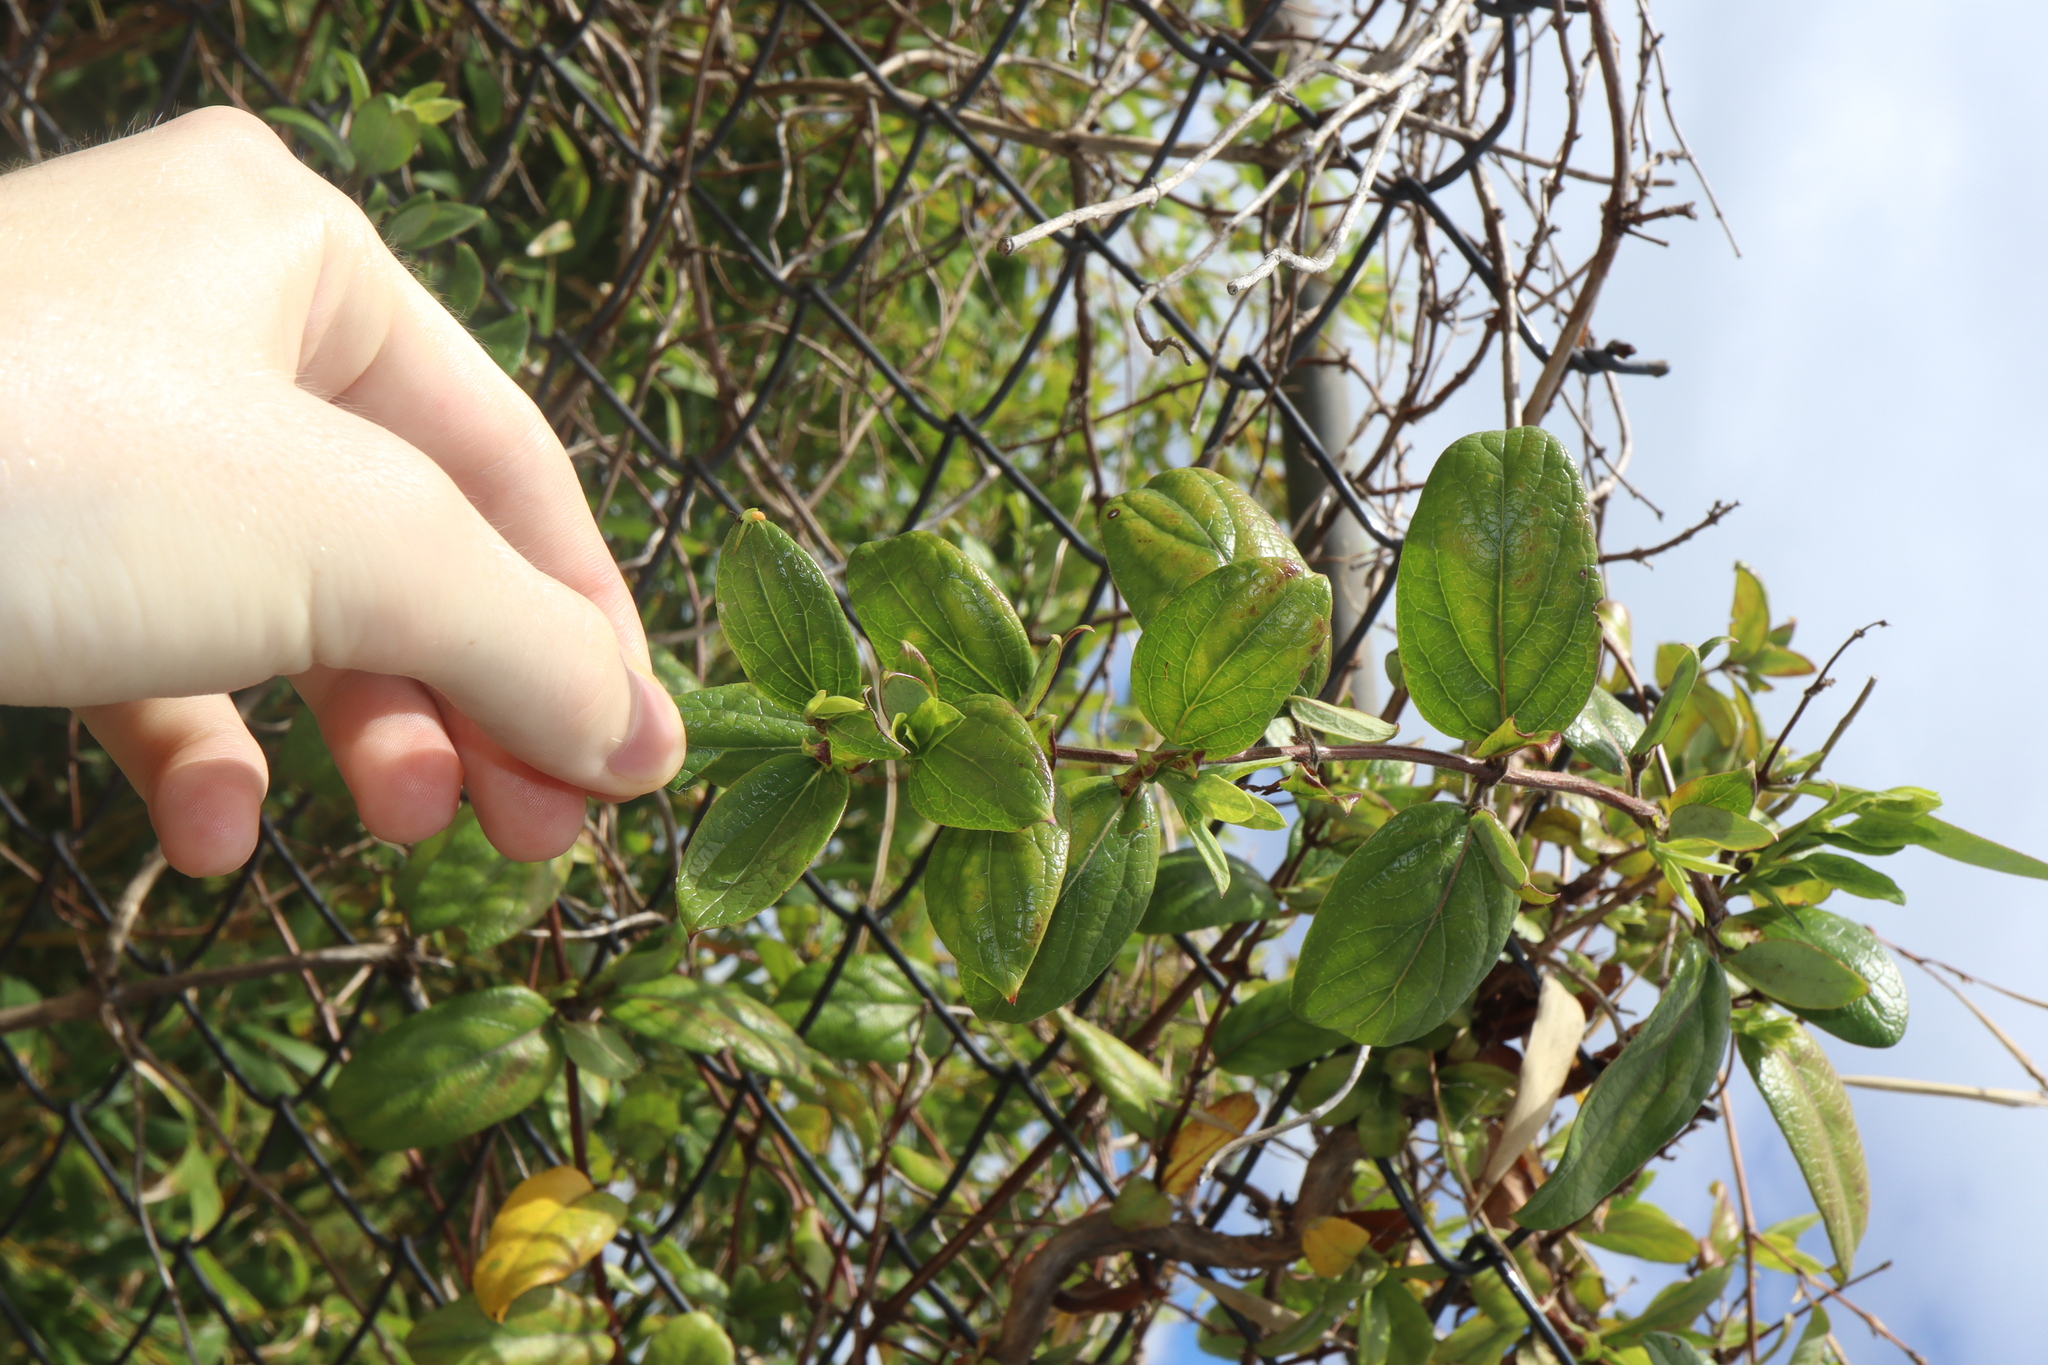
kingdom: Plantae
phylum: Tracheophyta
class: Magnoliopsida
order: Dipsacales
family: Caprifoliaceae
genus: Lonicera
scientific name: Lonicera japonica
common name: Japanese honeysuckle
